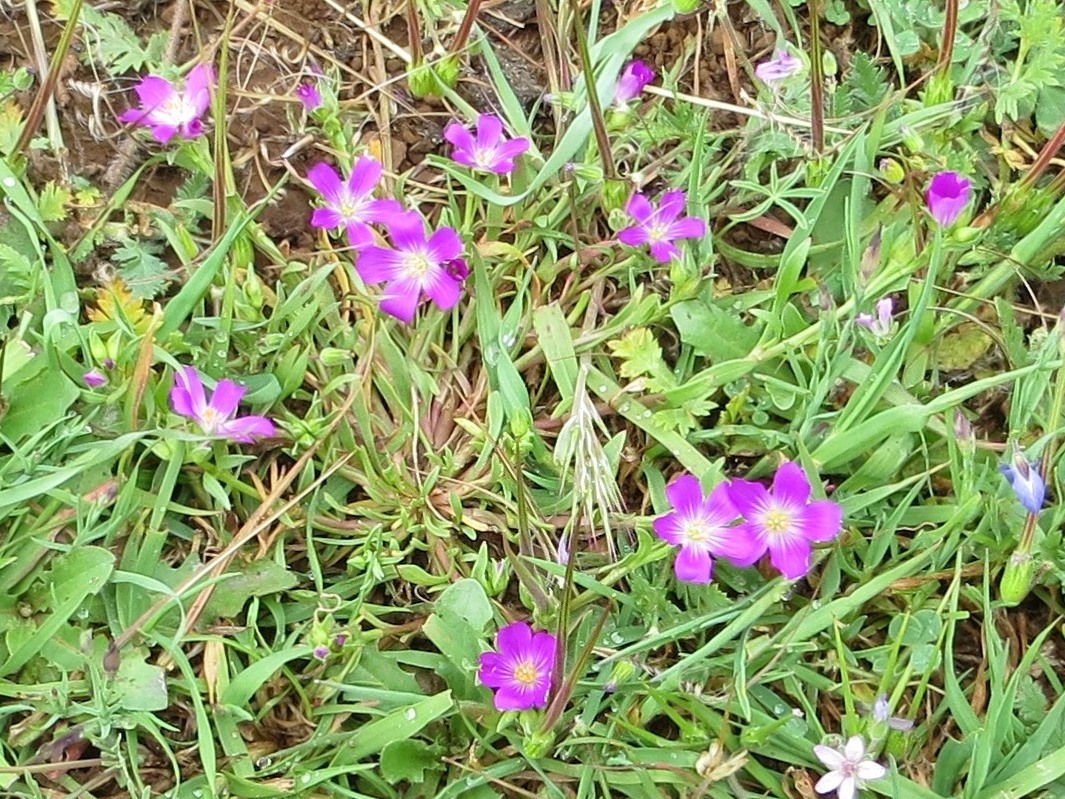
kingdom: Plantae
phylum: Tracheophyta
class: Magnoliopsida
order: Caryophyllales
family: Montiaceae
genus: Calandrinia
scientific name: Calandrinia menziesii
